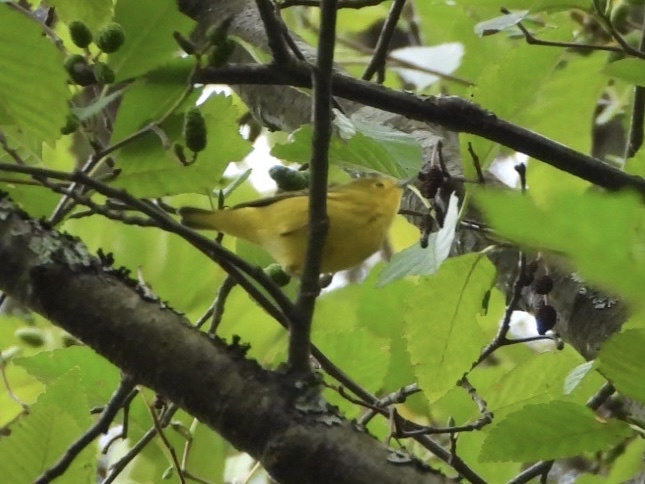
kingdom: Animalia
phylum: Chordata
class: Aves
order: Passeriformes
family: Parulidae
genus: Setophaga
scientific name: Setophaga petechia
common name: Yellow warbler
